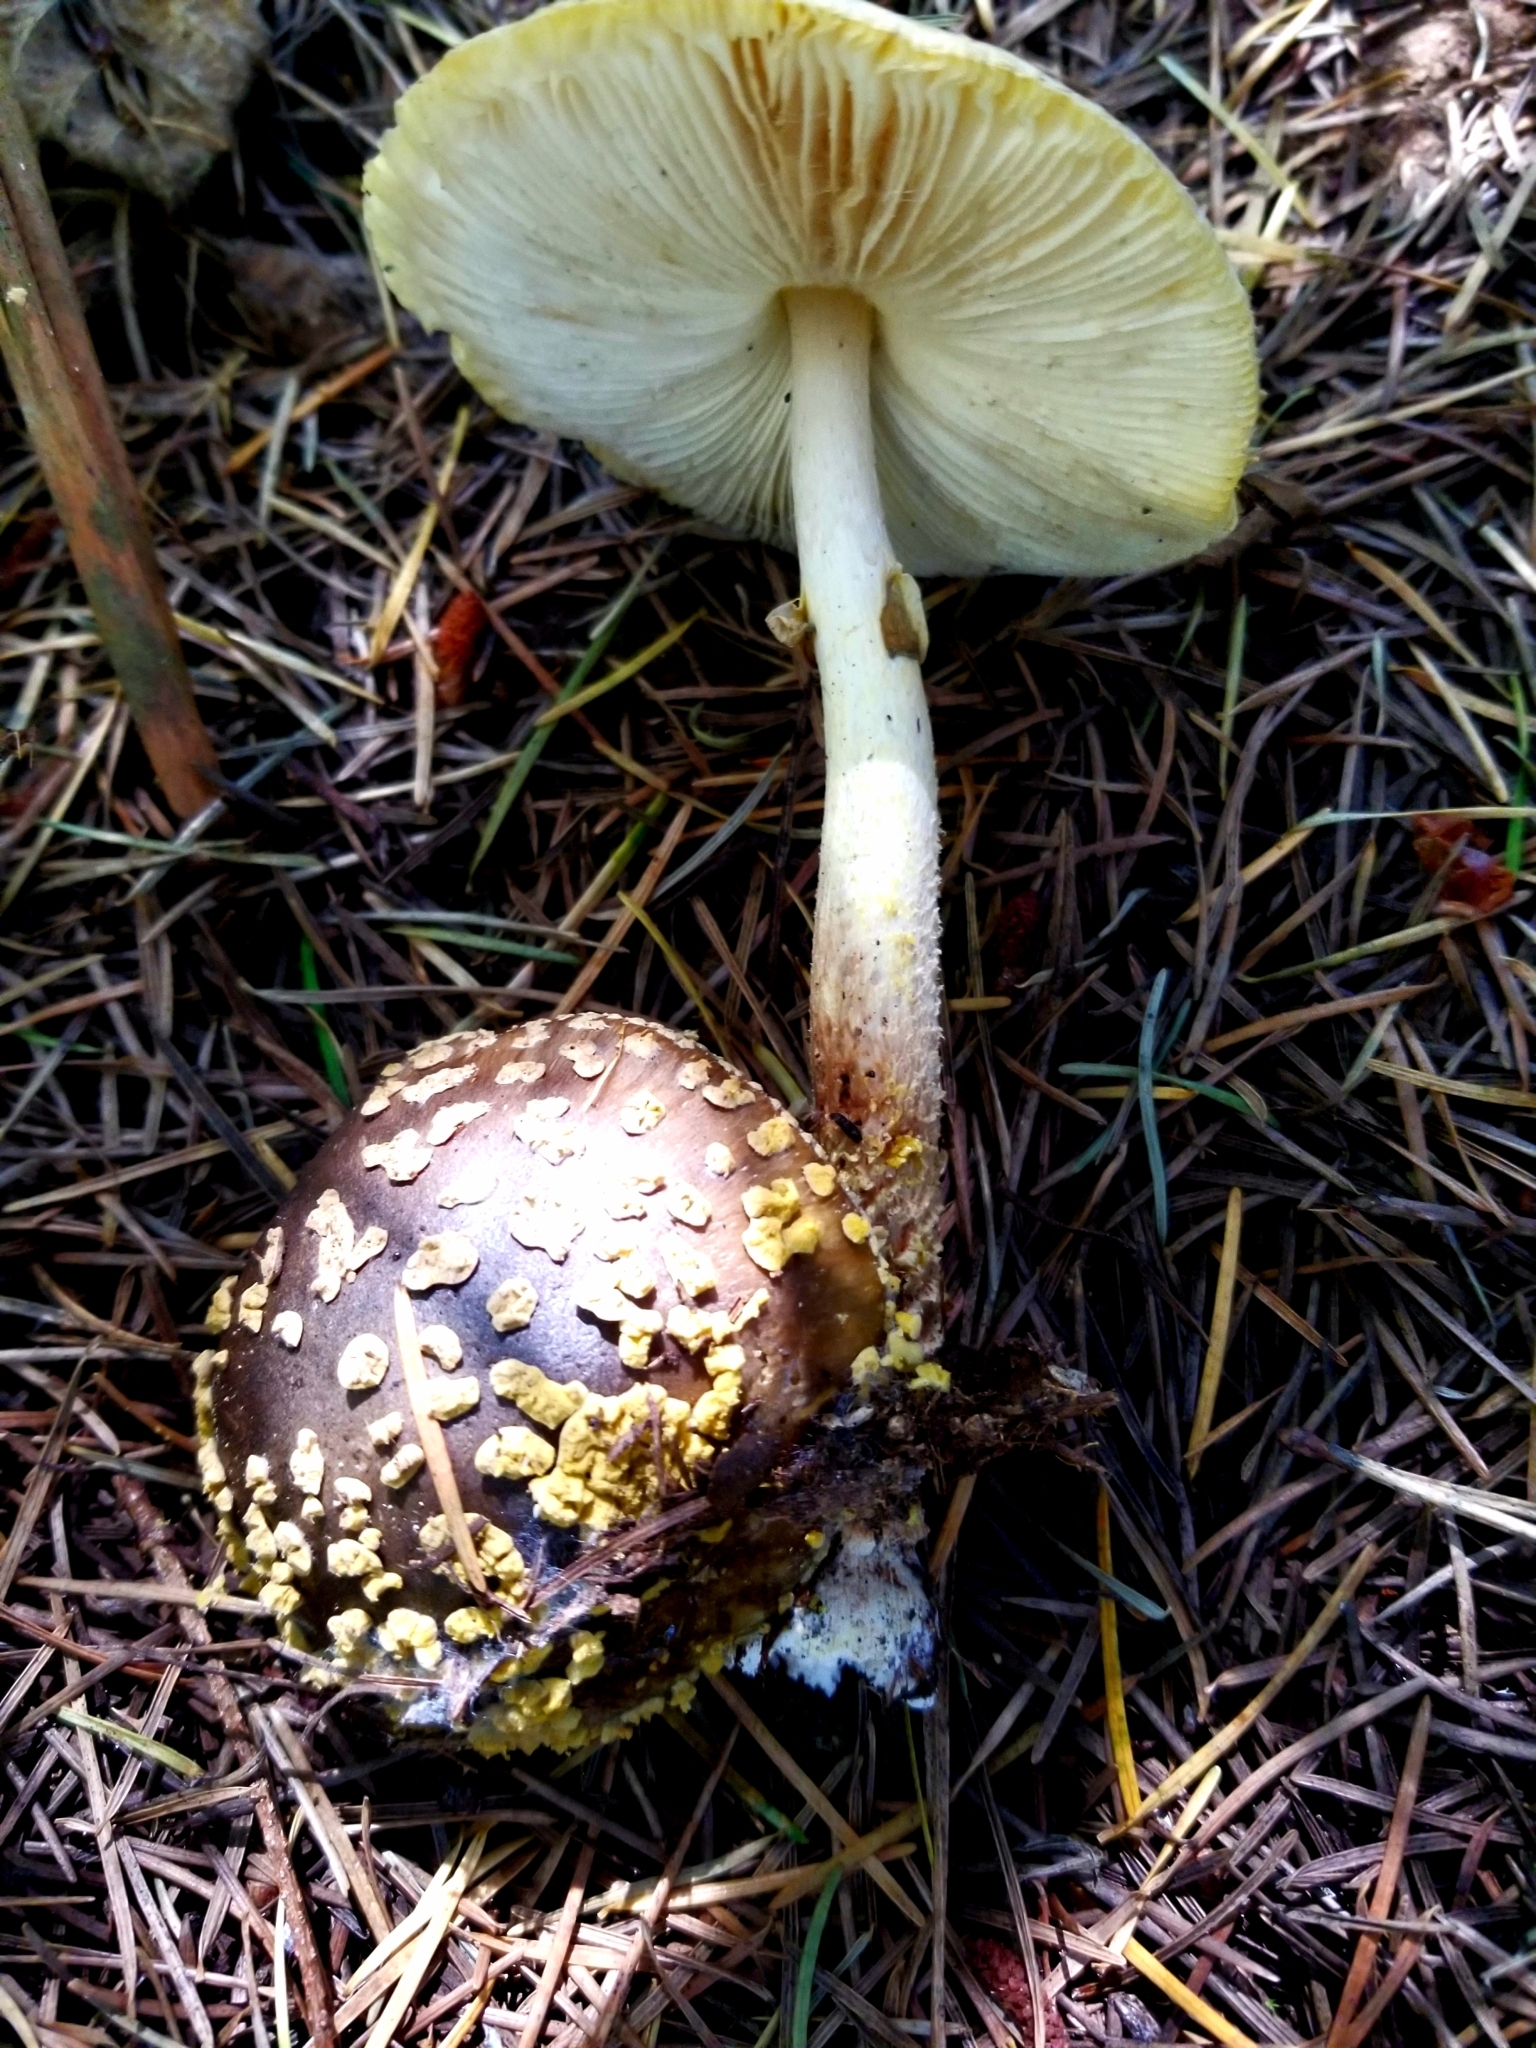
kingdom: Fungi
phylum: Basidiomycota
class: Agaricomycetes
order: Agaricales
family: Amanitaceae
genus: Amanita
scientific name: Amanita augusta
